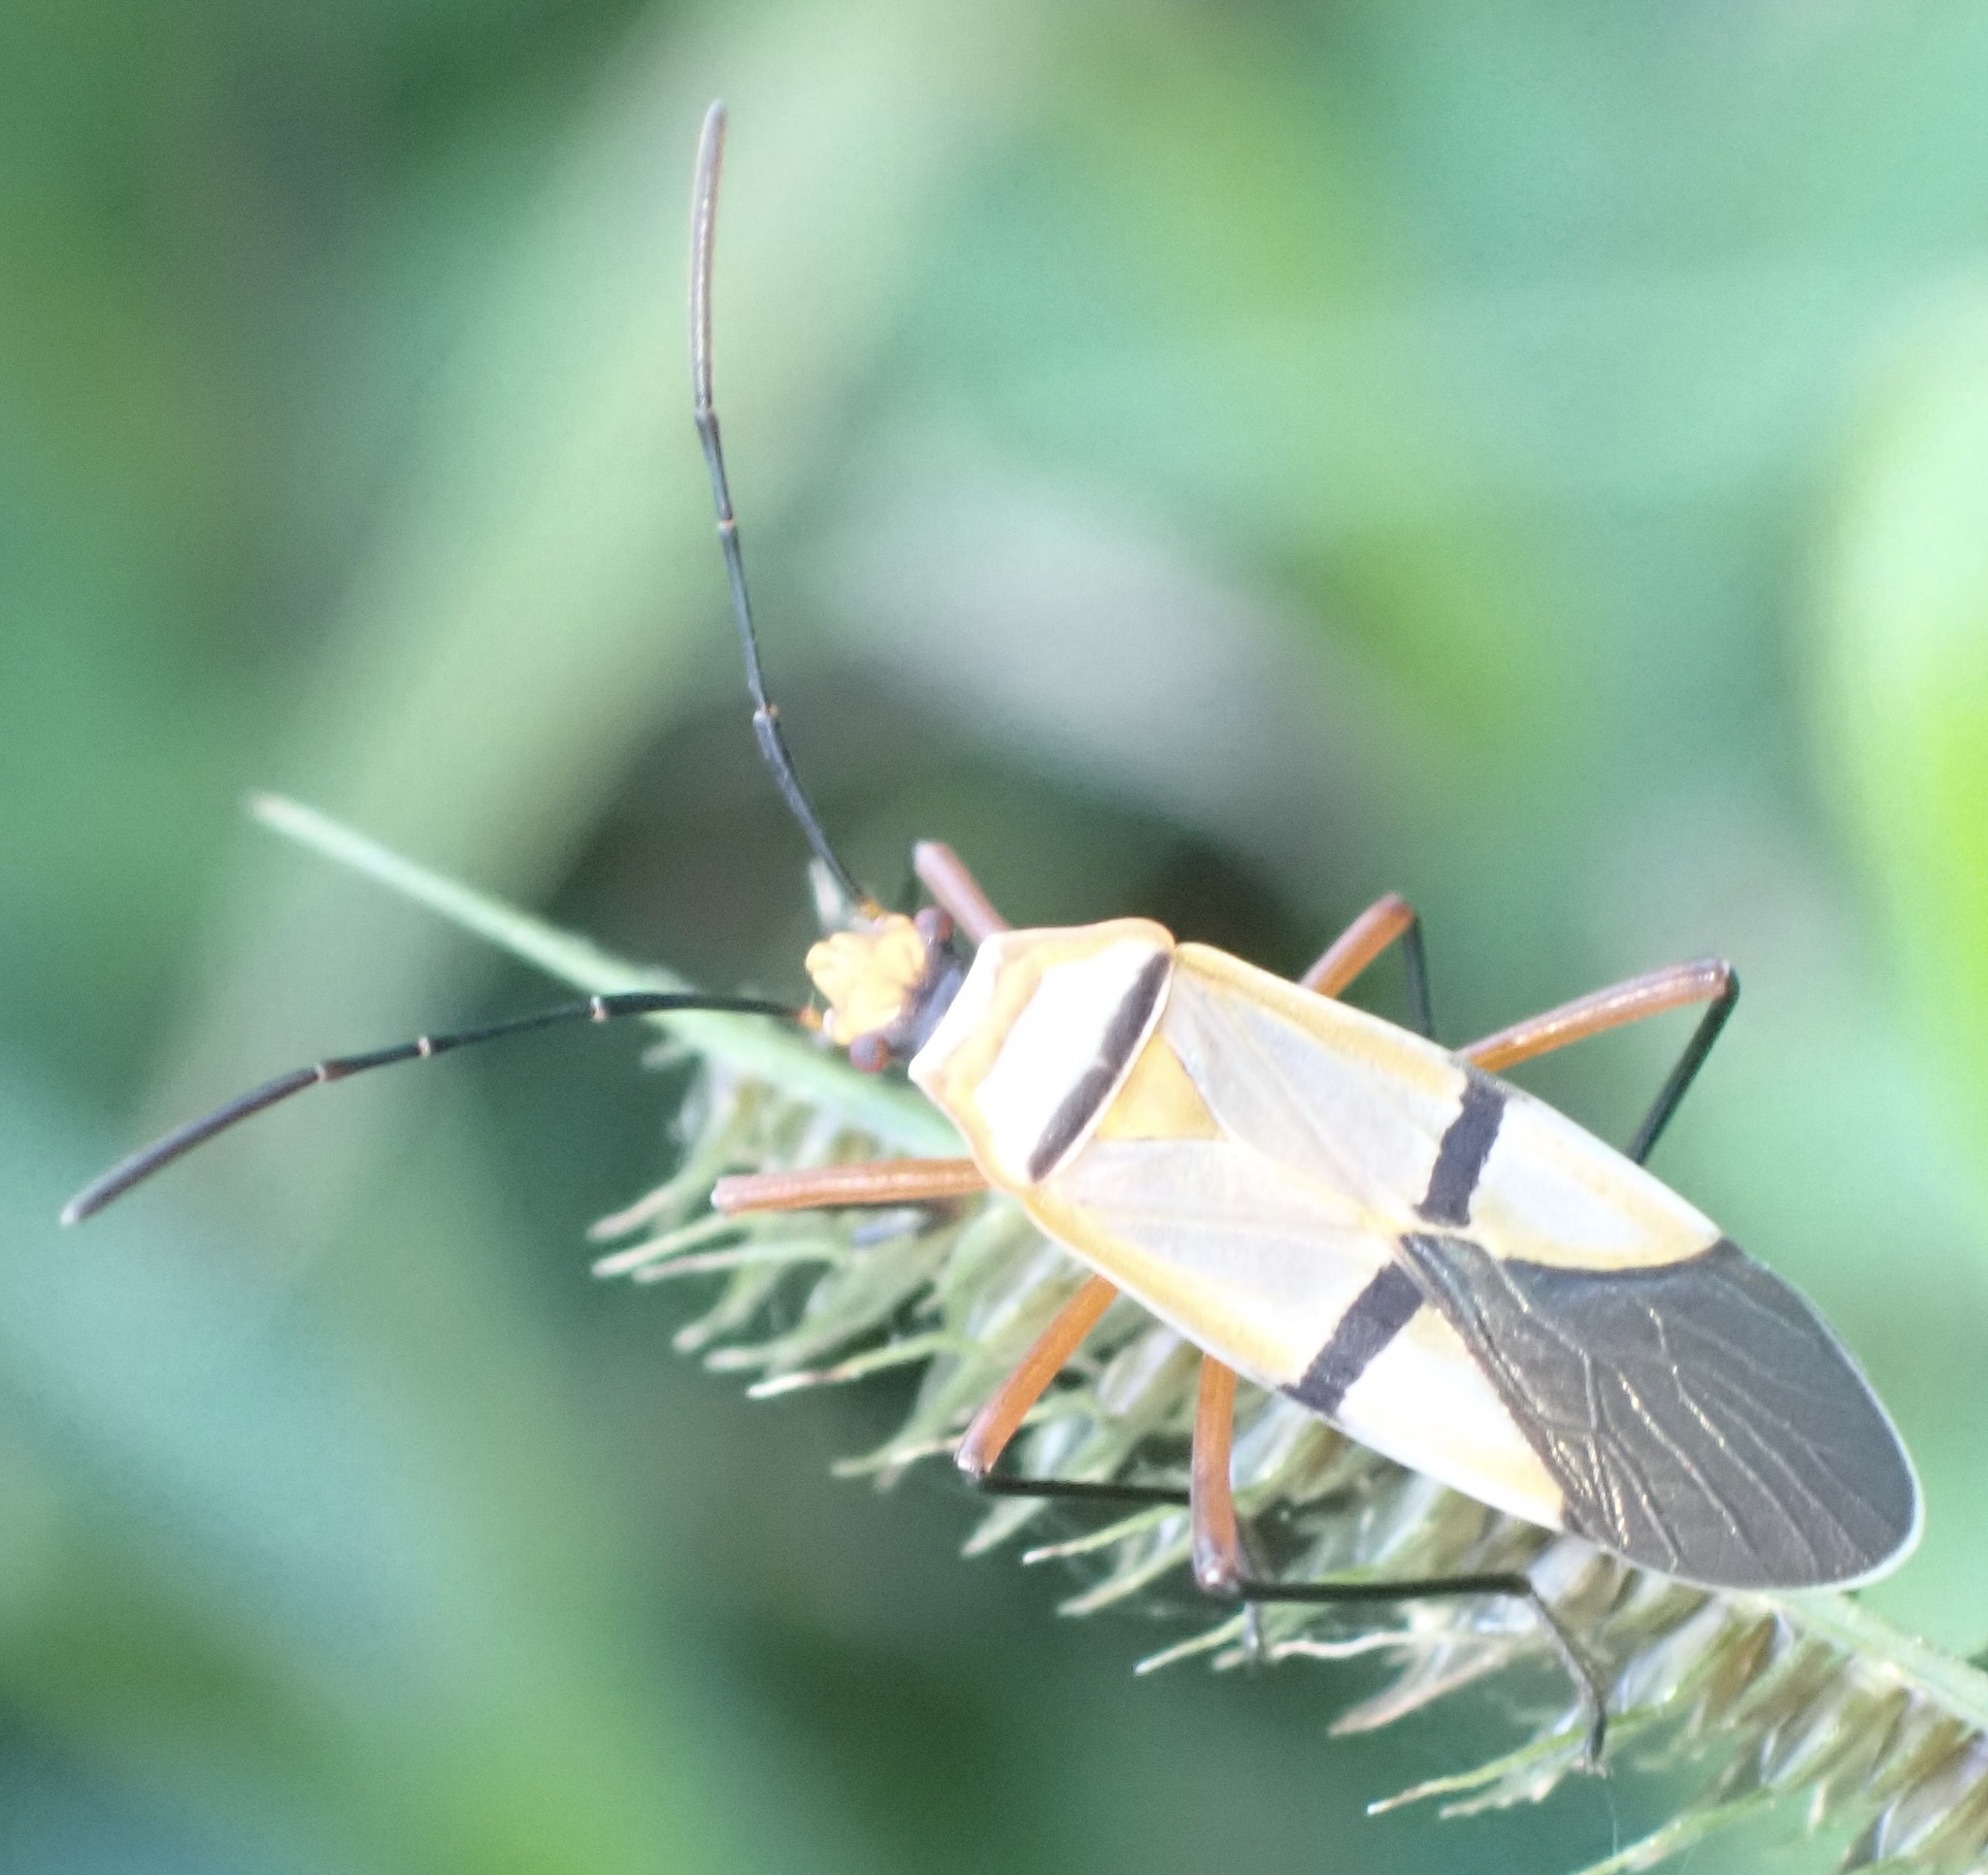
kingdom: Animalia
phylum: Arthropoda
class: Insecta
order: Hemiptera
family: Pyrrhocoridae
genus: Dysdercus
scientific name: Dysdercus
